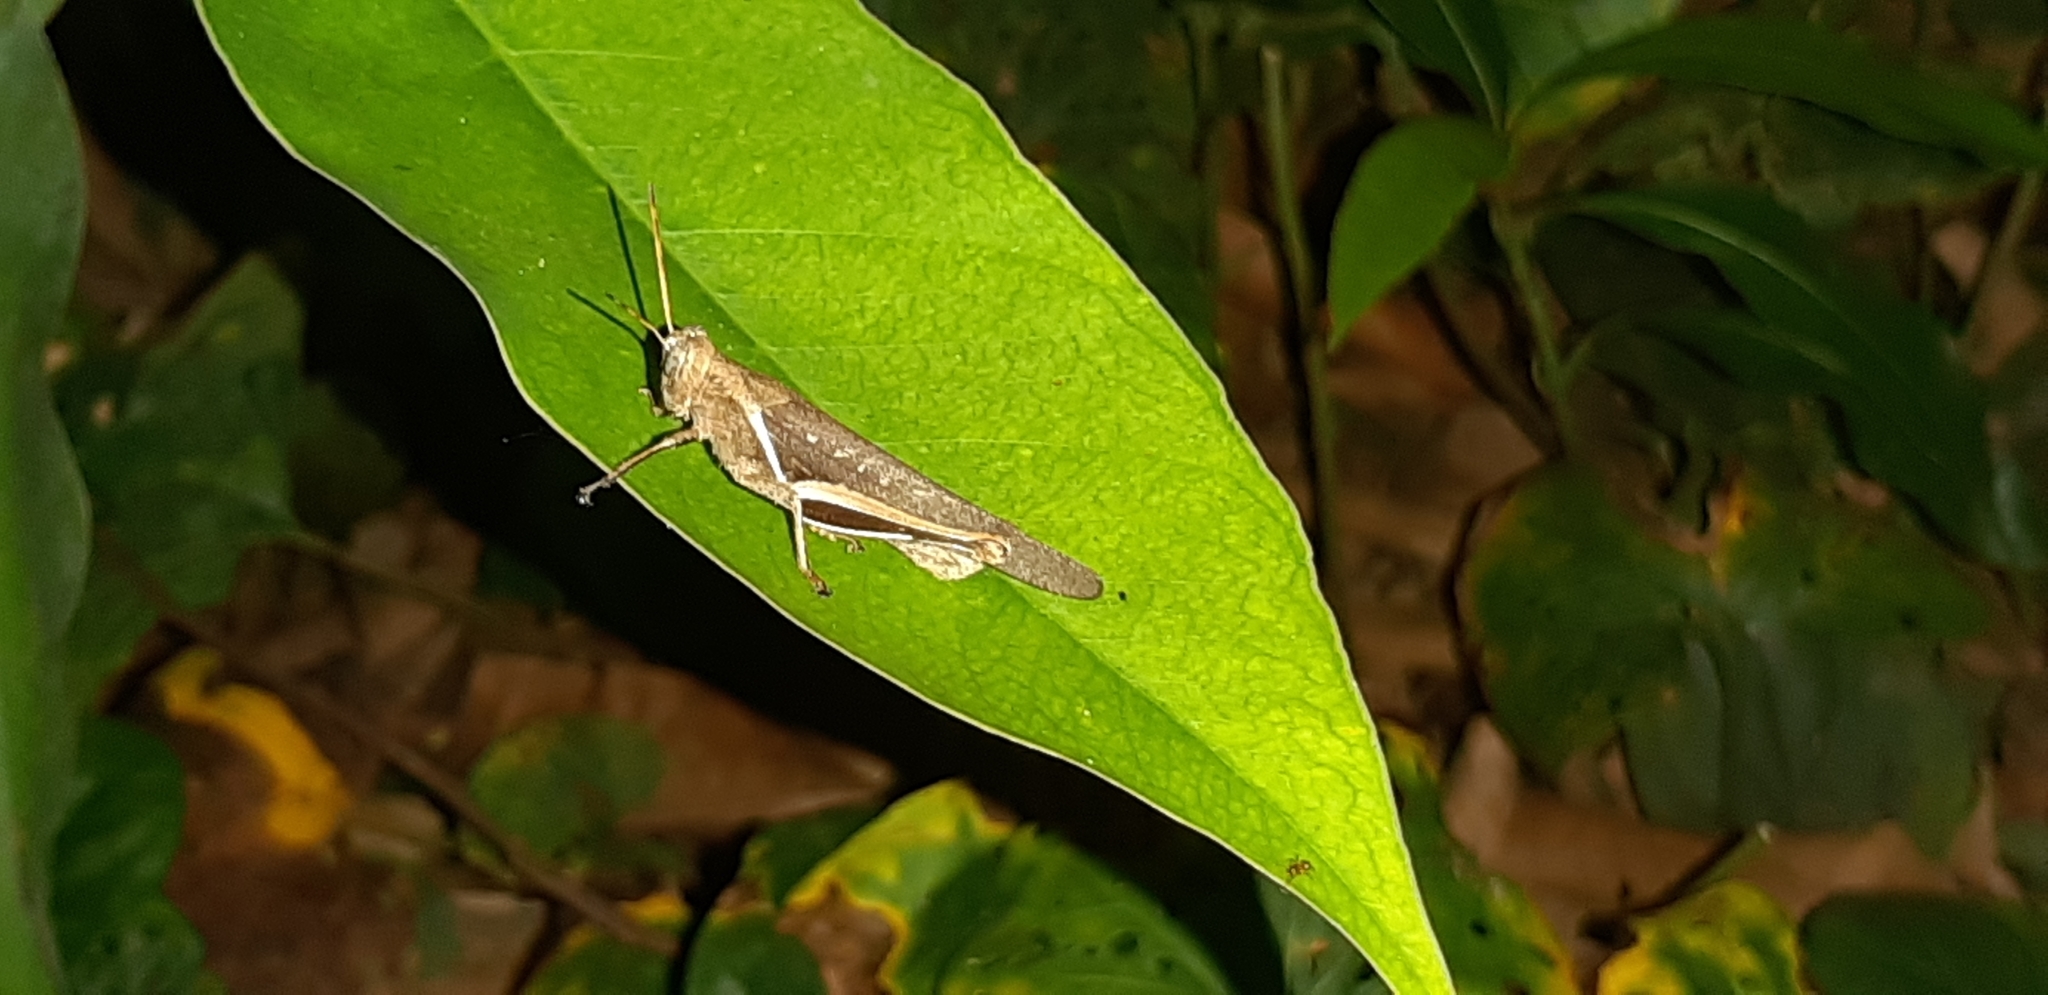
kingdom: Animalia
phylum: Arthropoda
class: Insecta
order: Orthoptera
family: Acrididae
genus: Abracris
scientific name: Abracris flavolineata
